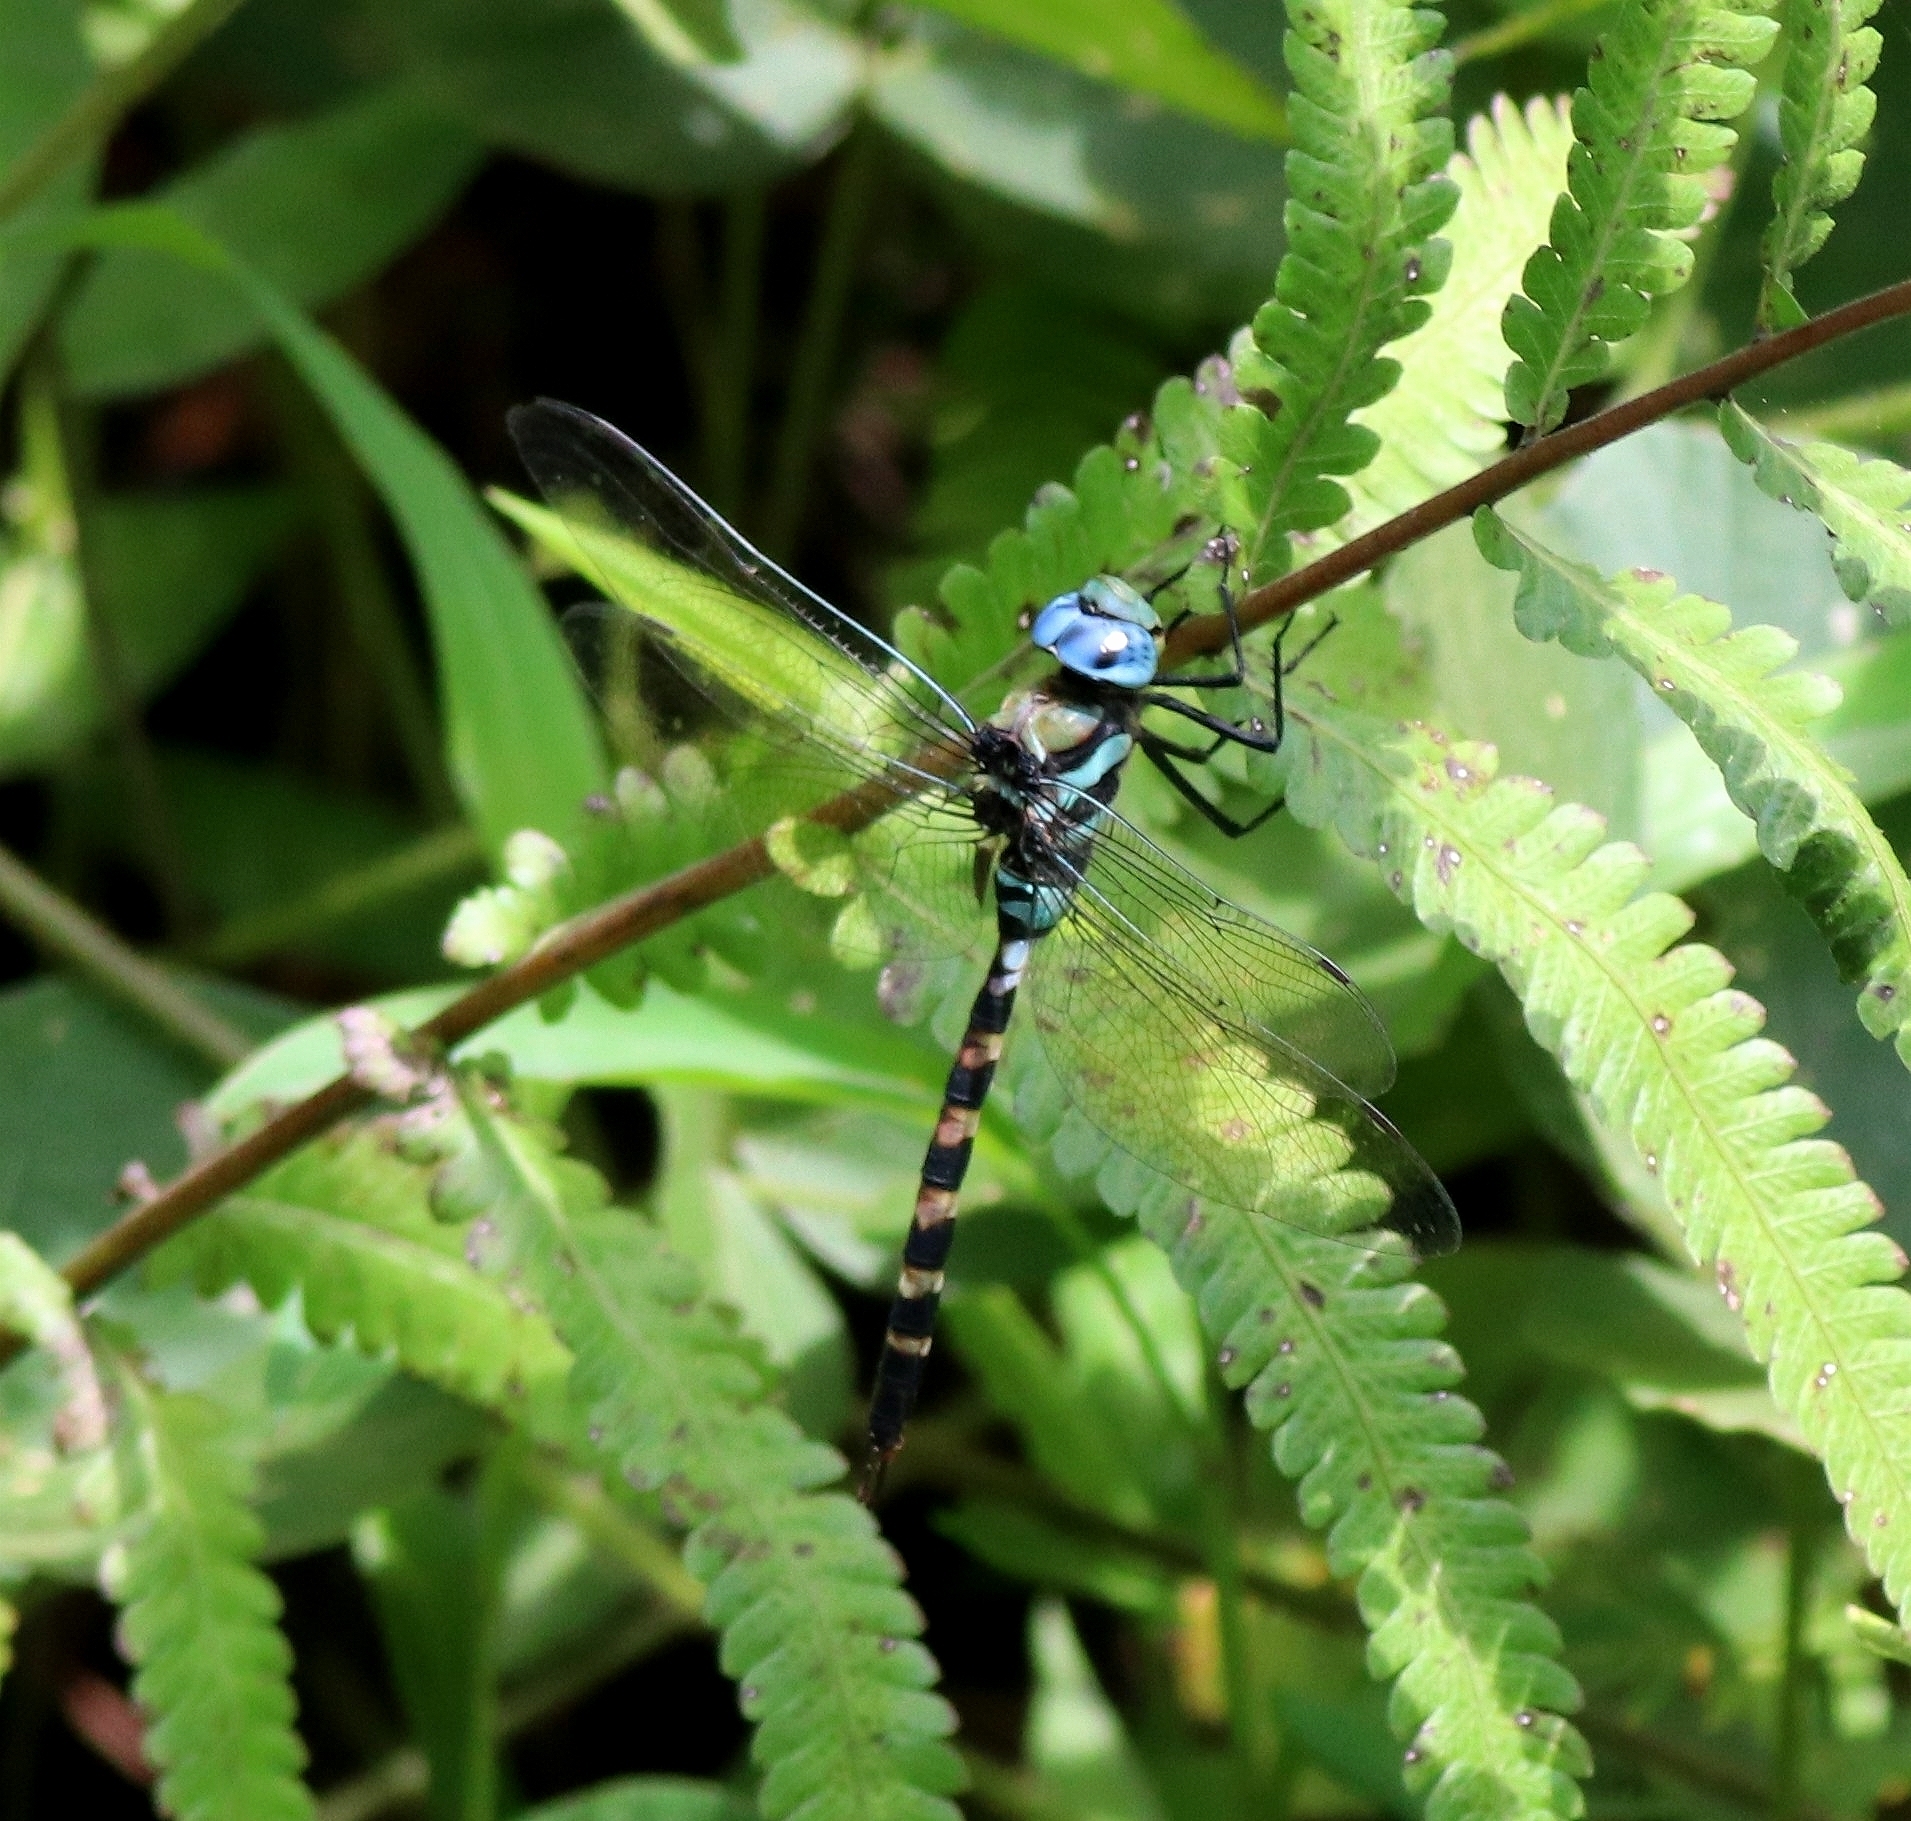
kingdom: Animalia
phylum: Arthropoda
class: Insecta
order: Odonata
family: Aeshnidae
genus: Anax
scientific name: Anax immaculifrons
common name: Magnificent emperor
